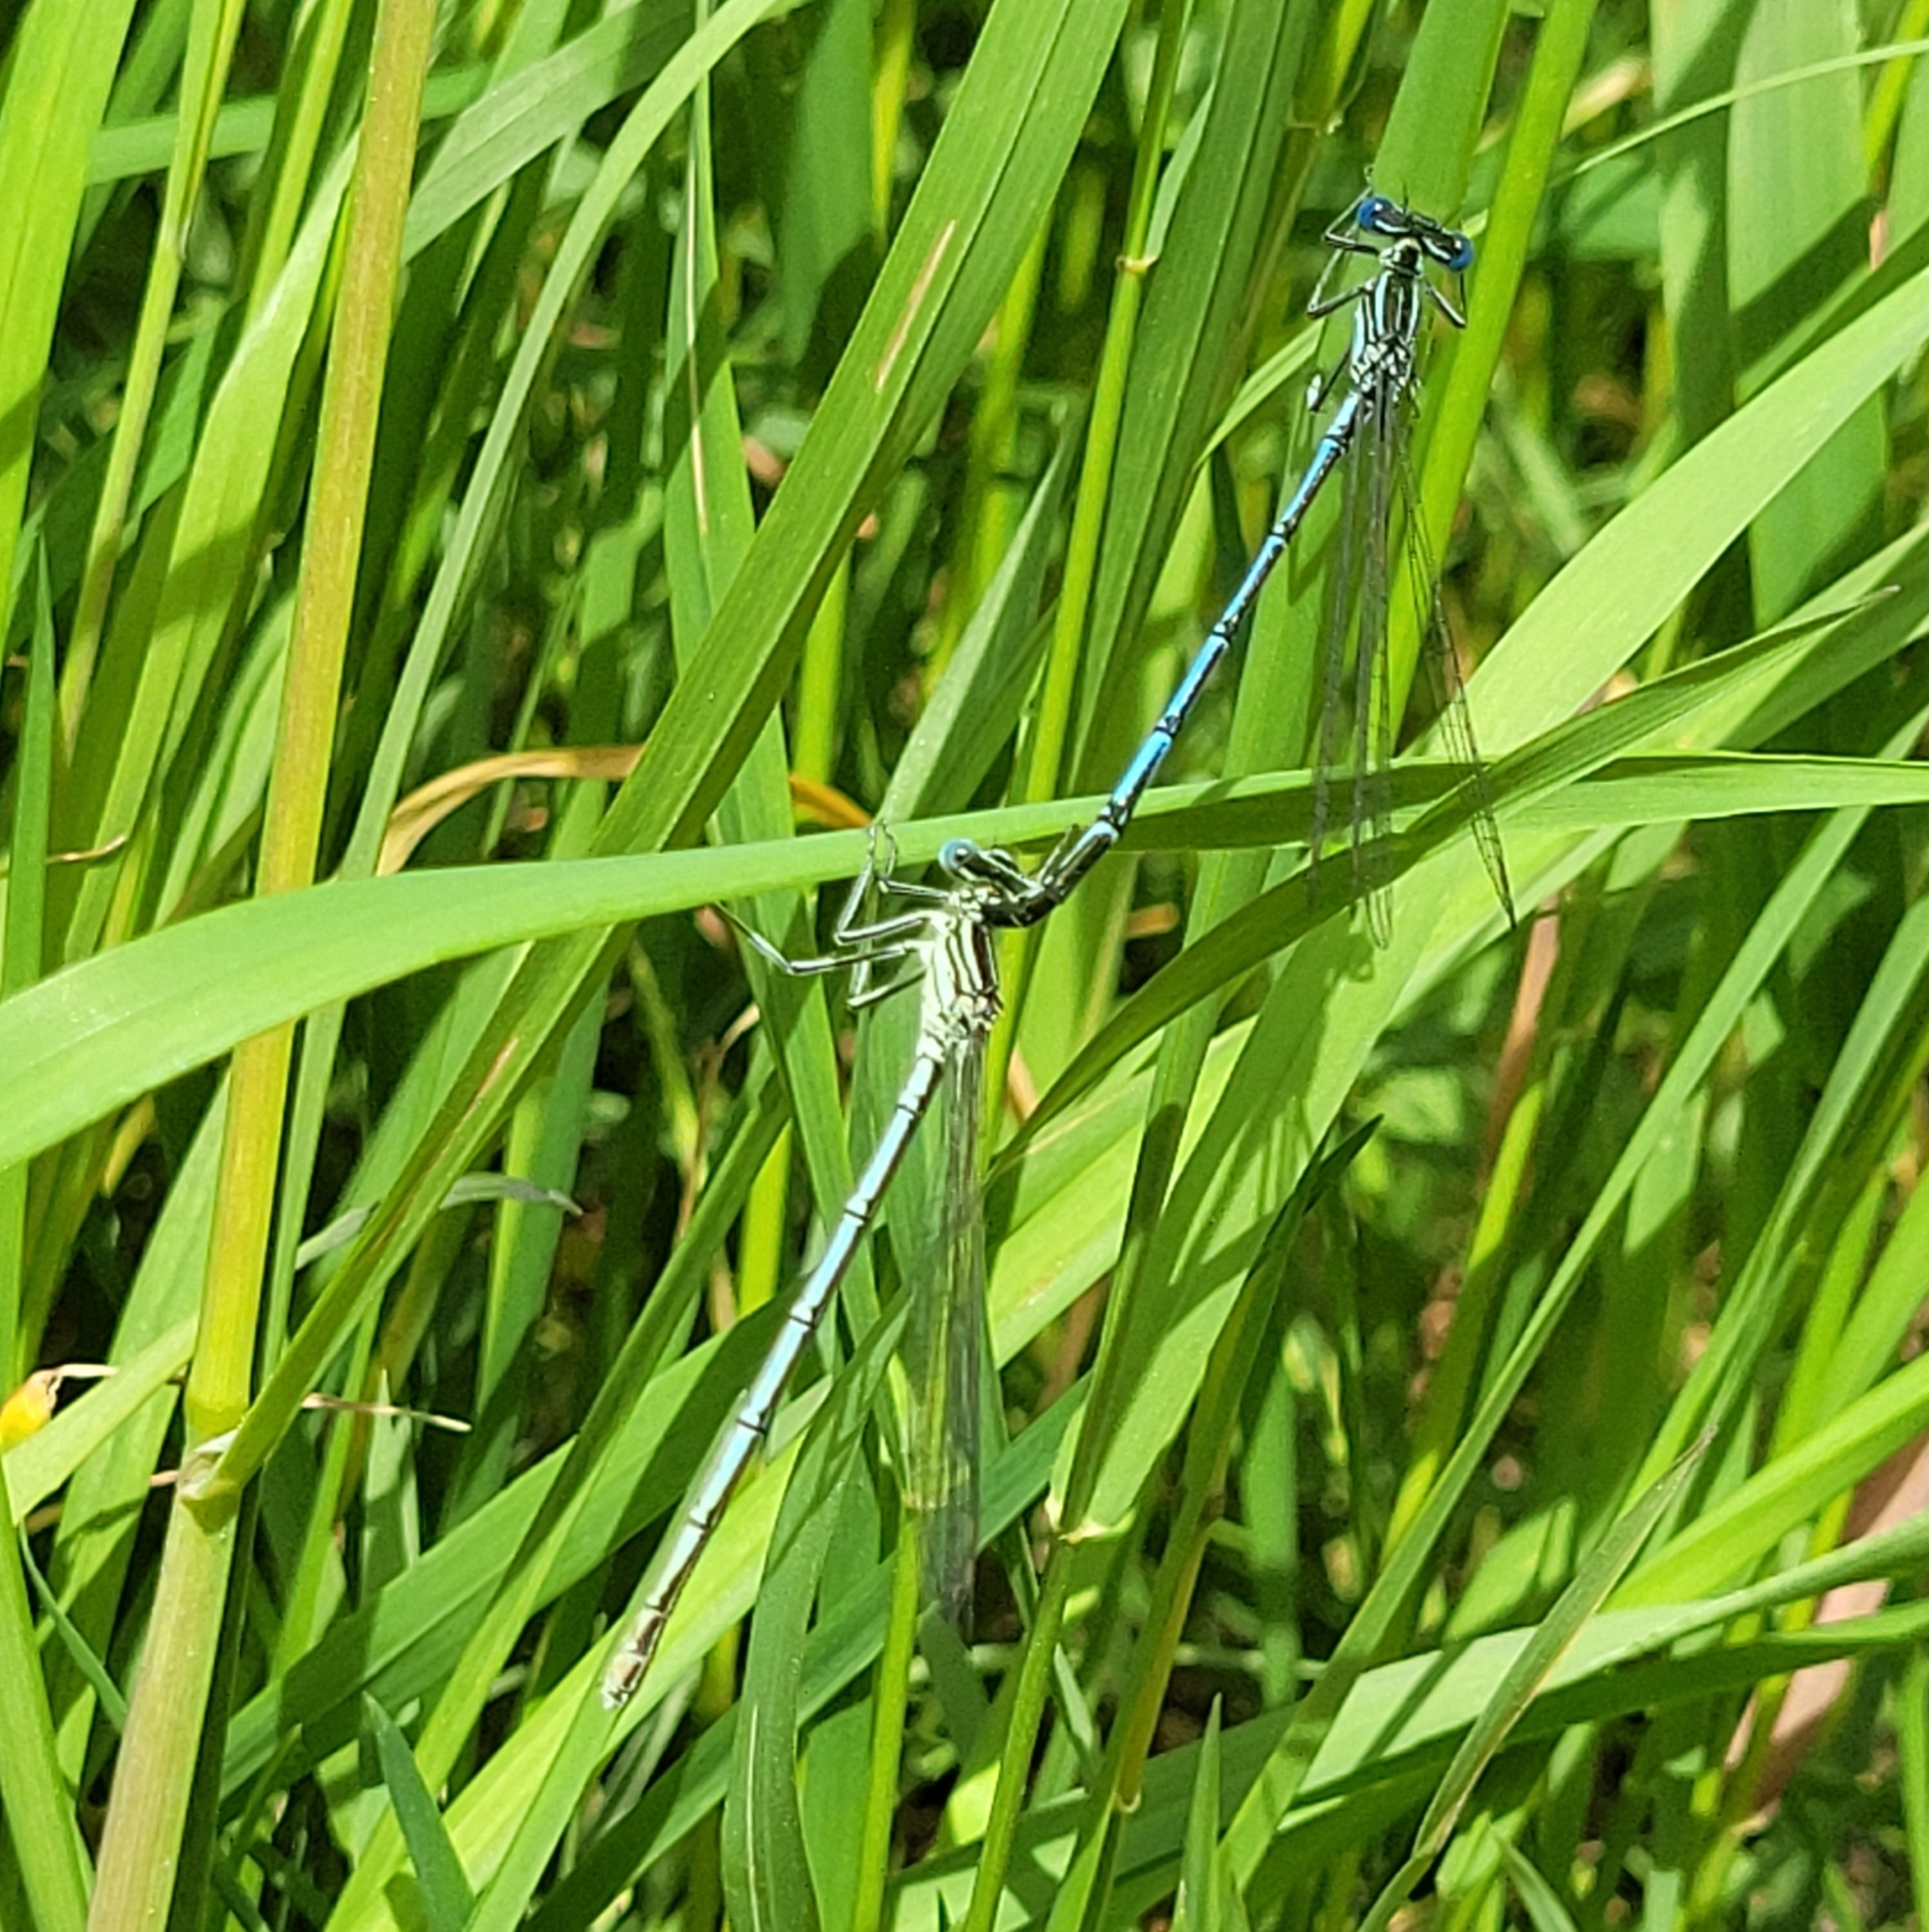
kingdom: Animalia
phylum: Arthropoda
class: Insecta
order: Odonata
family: Platycnemididae
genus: Platycnemis
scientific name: Platycnemis pennipes
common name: White-legged damselfly
